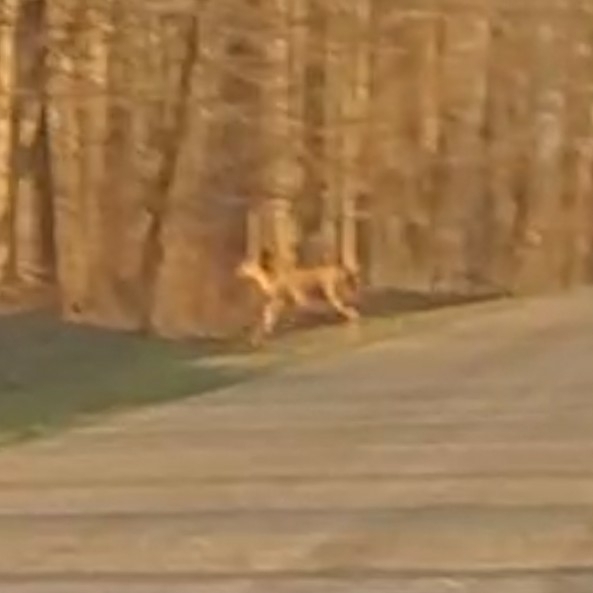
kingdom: Animalia
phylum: Chordata
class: Mammalia
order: Artiodactyla
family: Cervidae
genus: Odocoileus
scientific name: Odocoileus virginianus
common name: White-tailed deer
